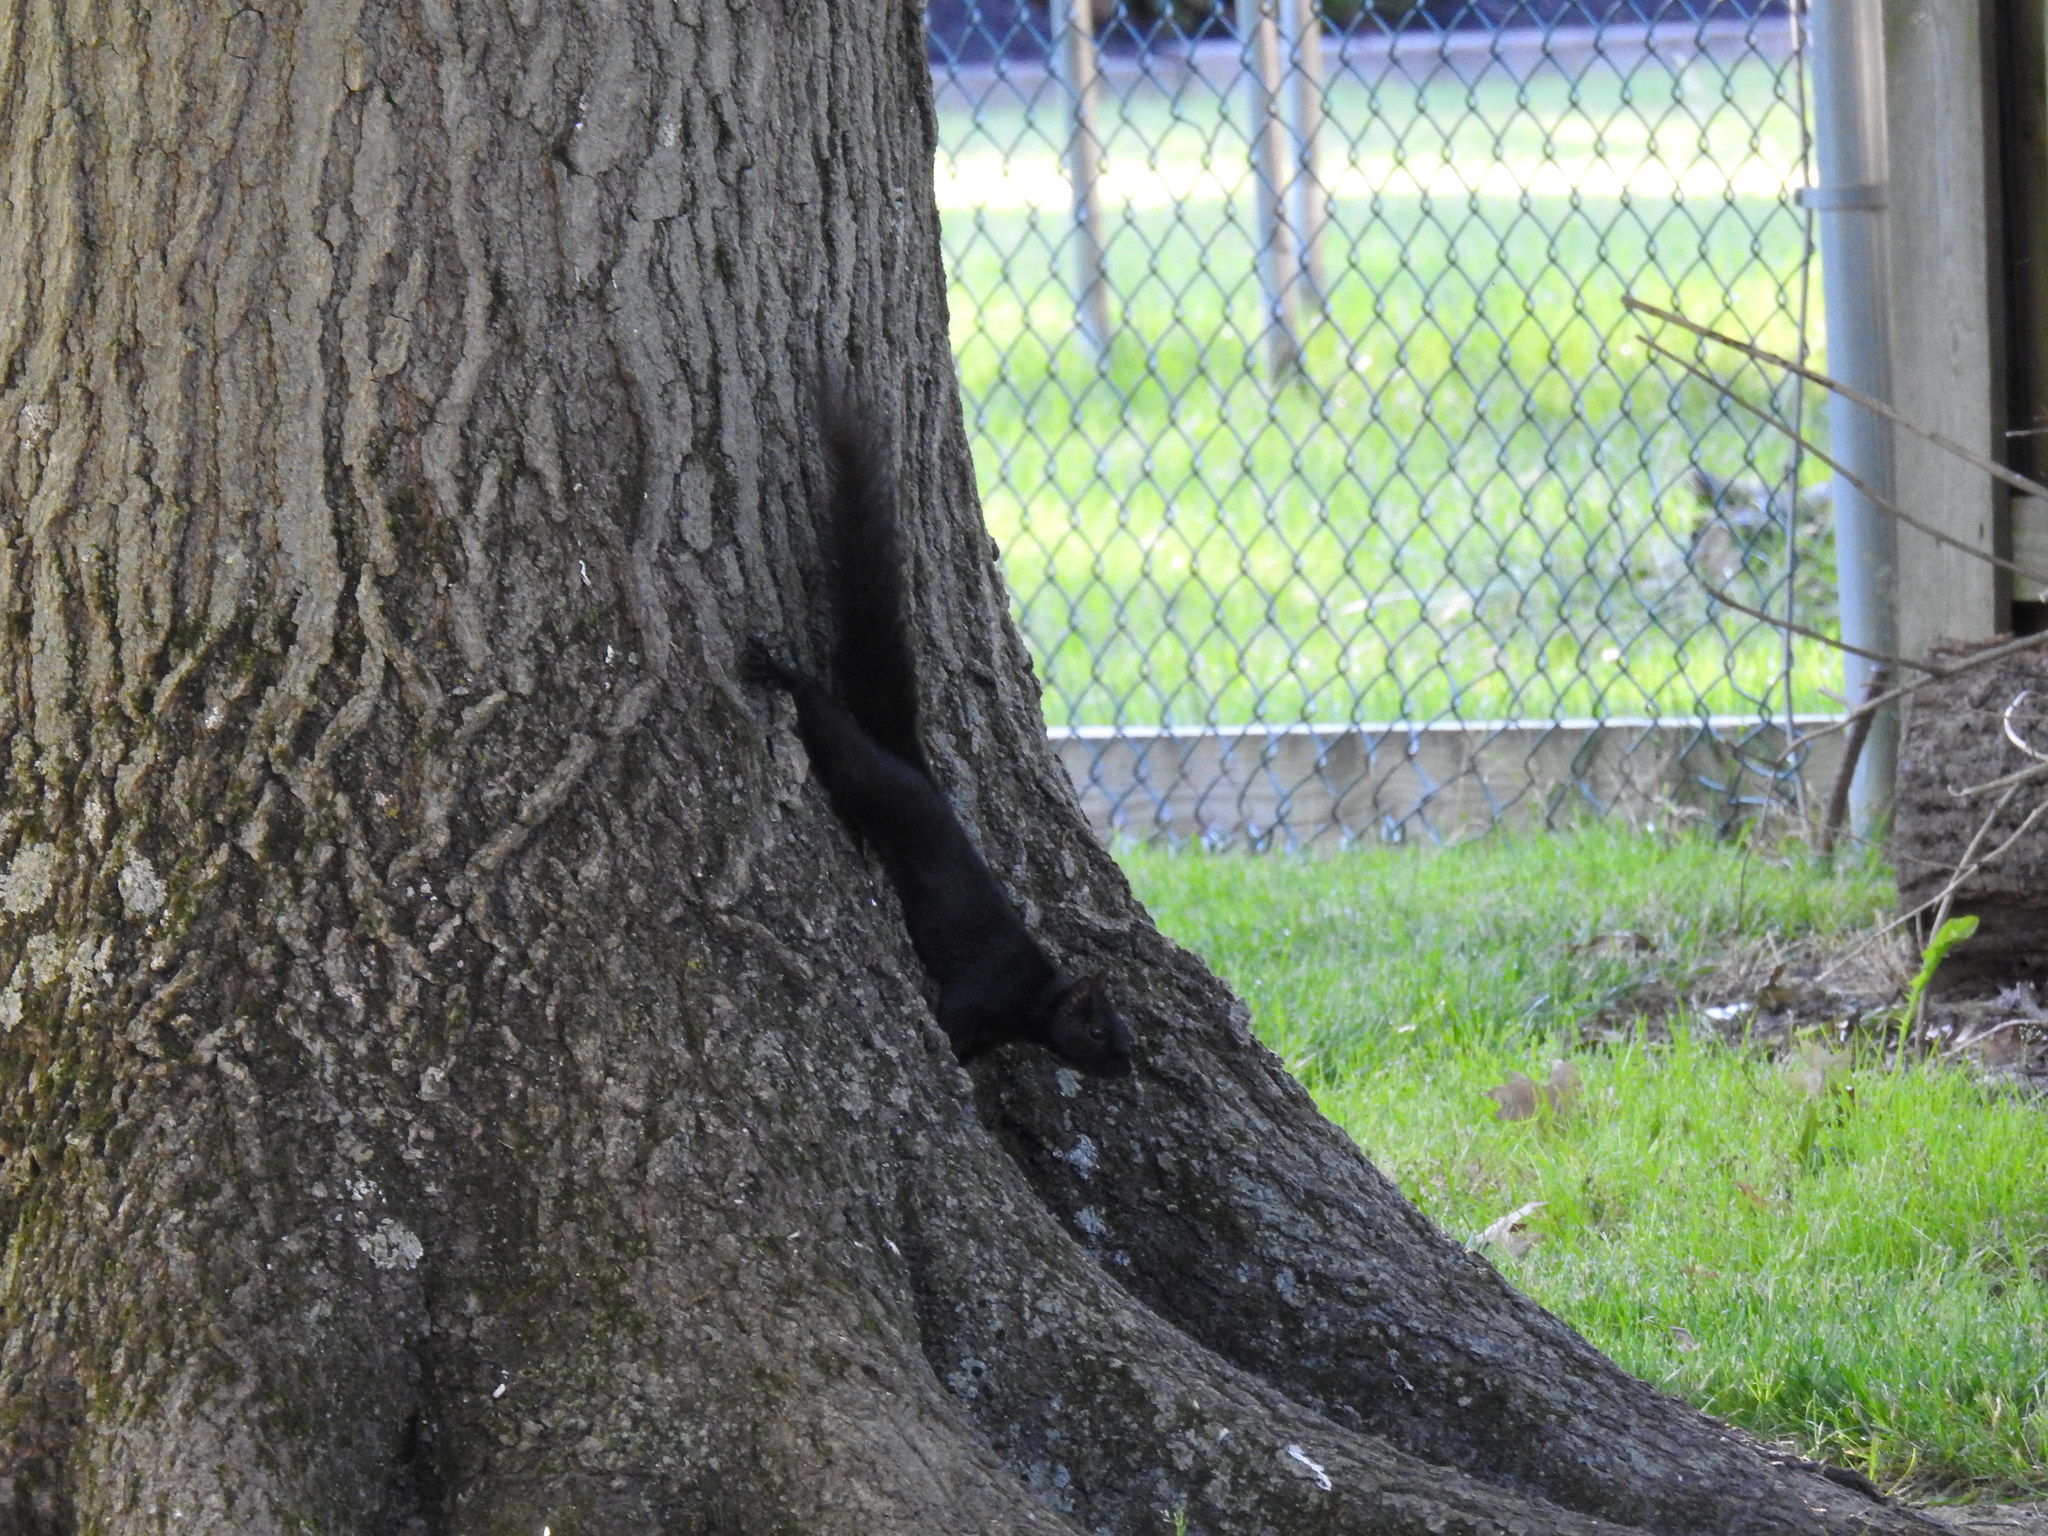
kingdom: Animalia
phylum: Chordata
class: Mammalia
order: Rodentia
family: Sciuridae
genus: Sciurus
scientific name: Sciurus carolinensis
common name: Eastern gray squirrel
